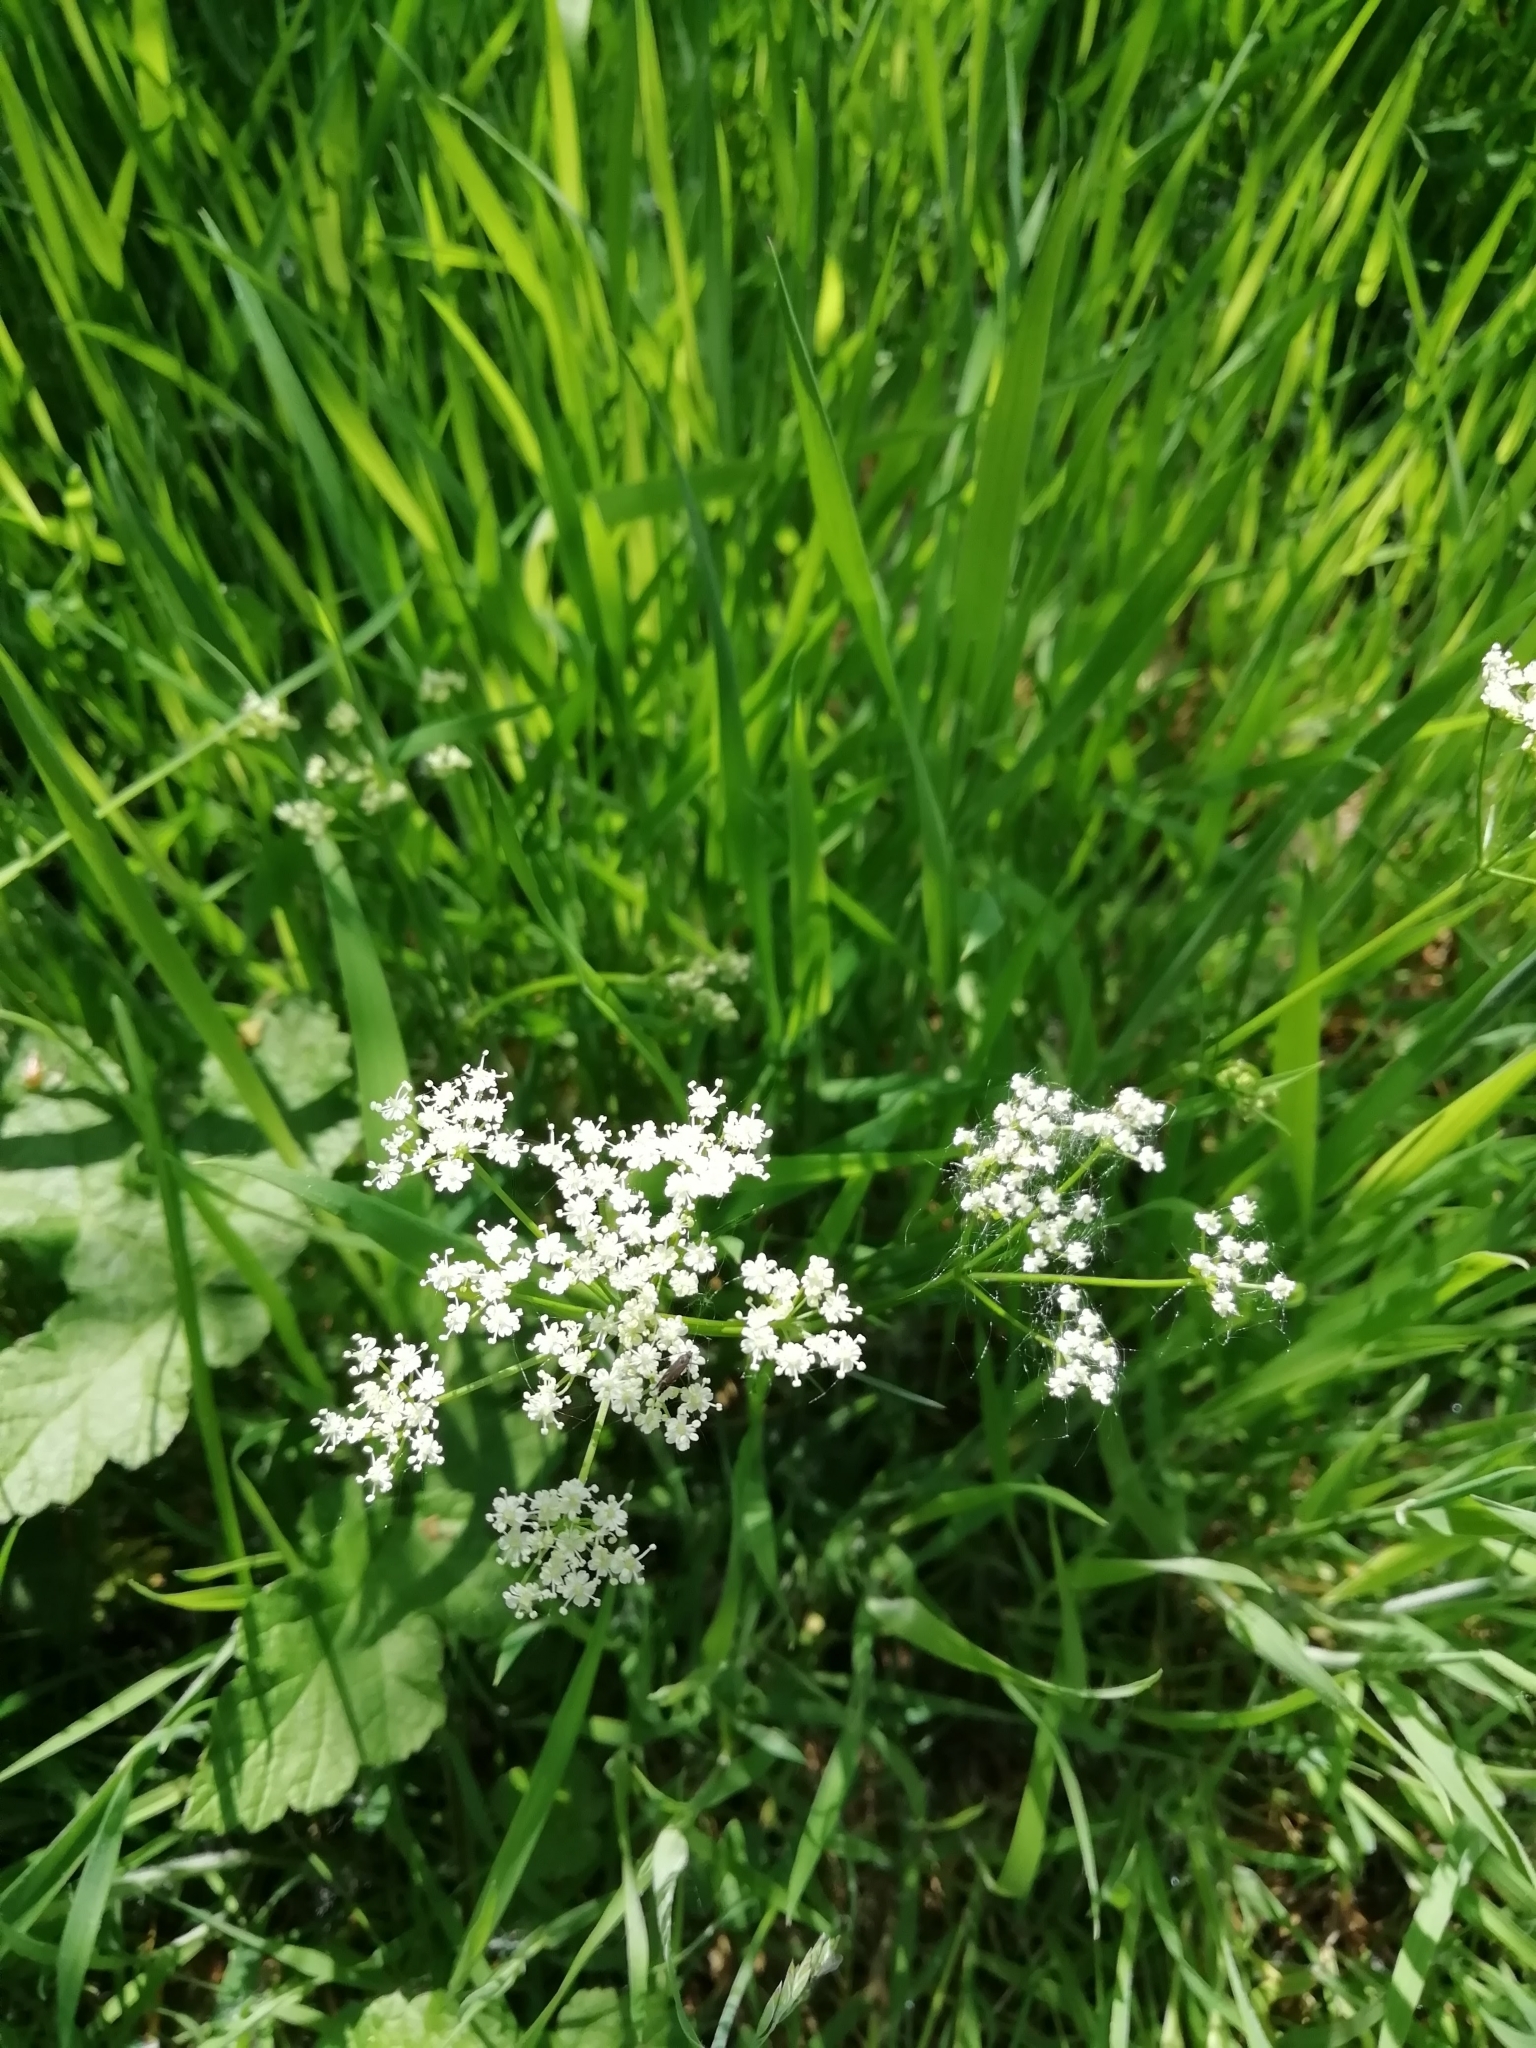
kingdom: Plantae
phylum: Tracheophyta
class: Magnoliopsida
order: Apiales
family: Apiaceae
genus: Conopodium
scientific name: Conopodium majus
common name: Pignut
